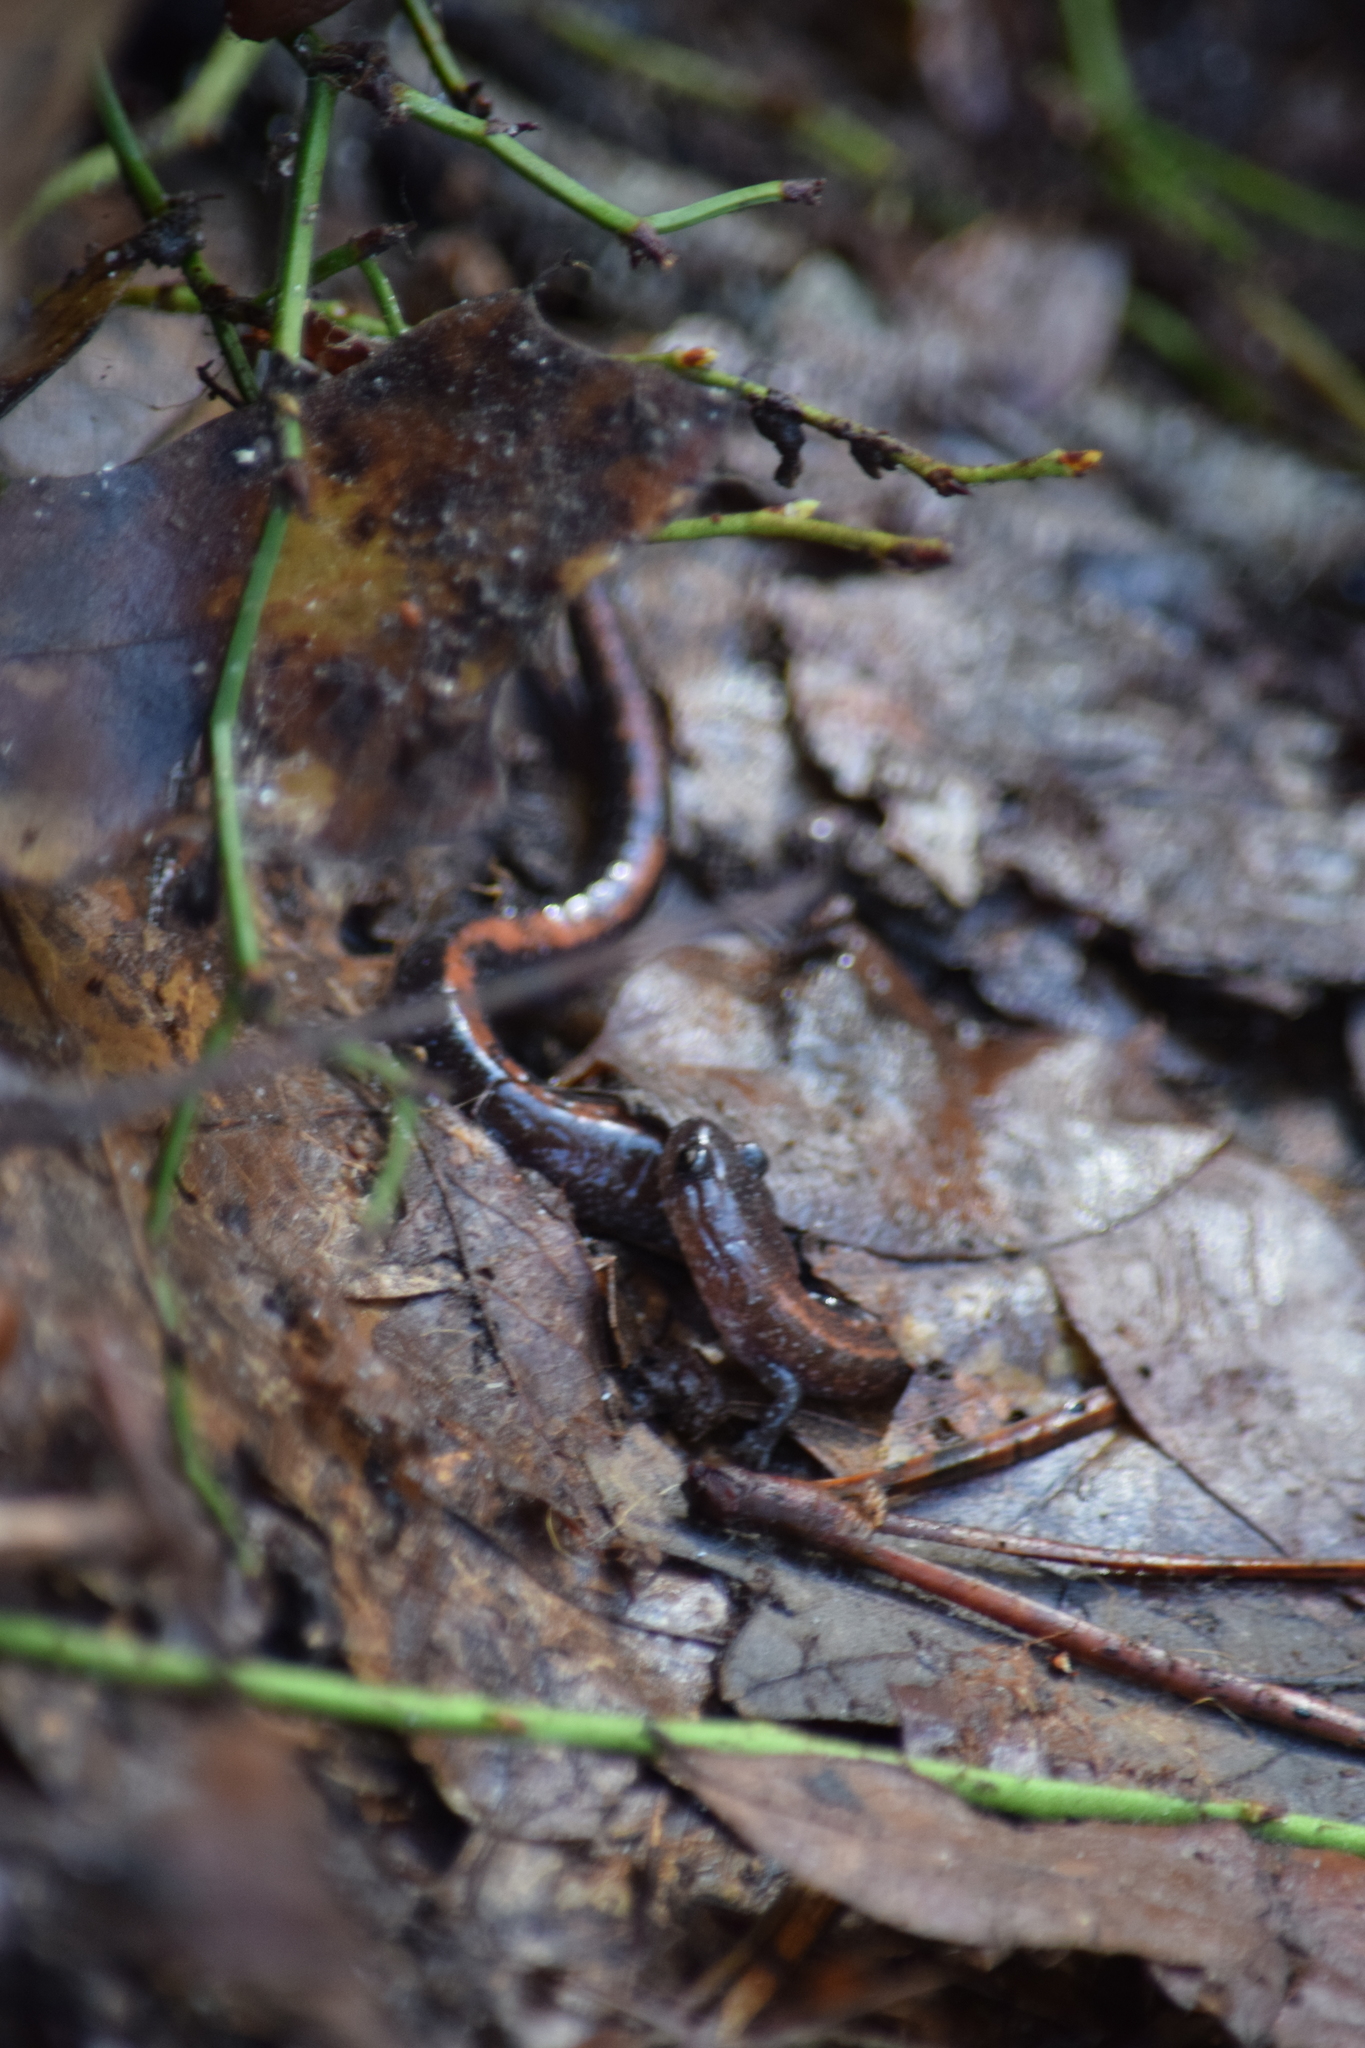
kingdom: Animalia
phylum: Chordata
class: Amphibia
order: Caudata
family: Plethodontidae
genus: Plethodon
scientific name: Plethodon cinereus
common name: Redback salamander
